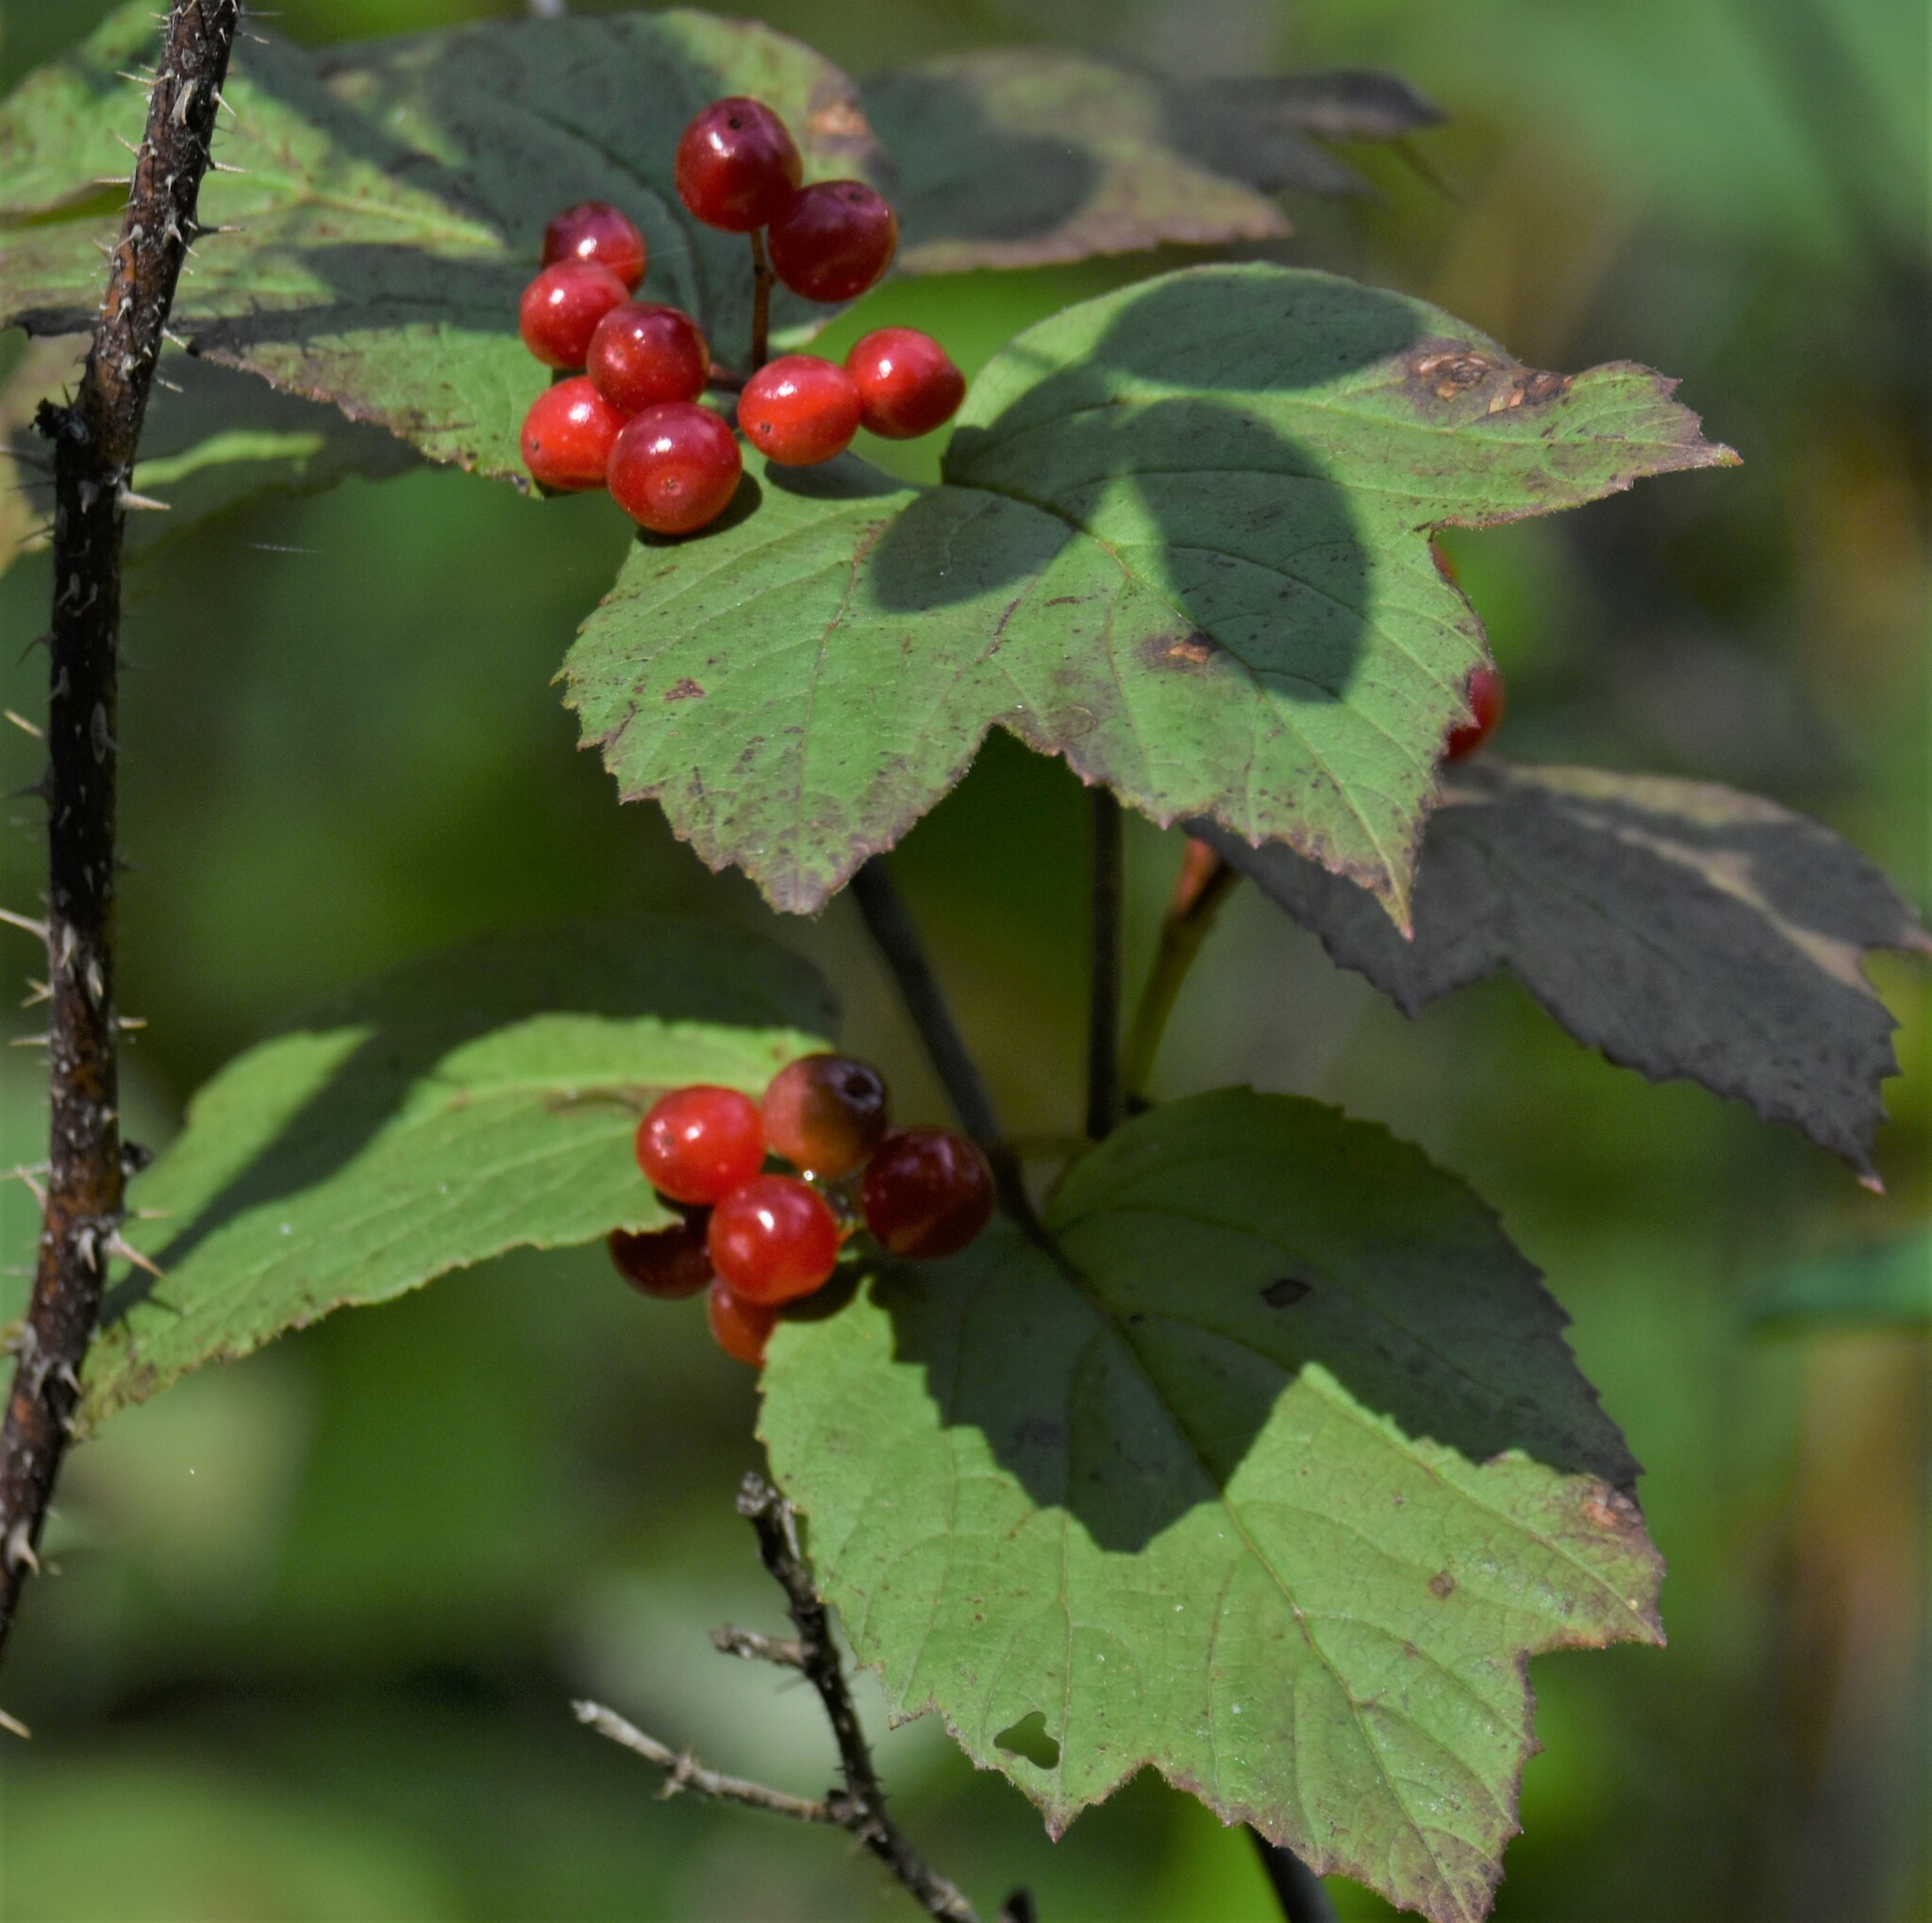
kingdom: Plantae
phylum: Tracheophyta
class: Magnoliopsida
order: Dipsacales
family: Viburnaceae
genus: Viburnum
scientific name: Viburnum edule
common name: Mooseberry
